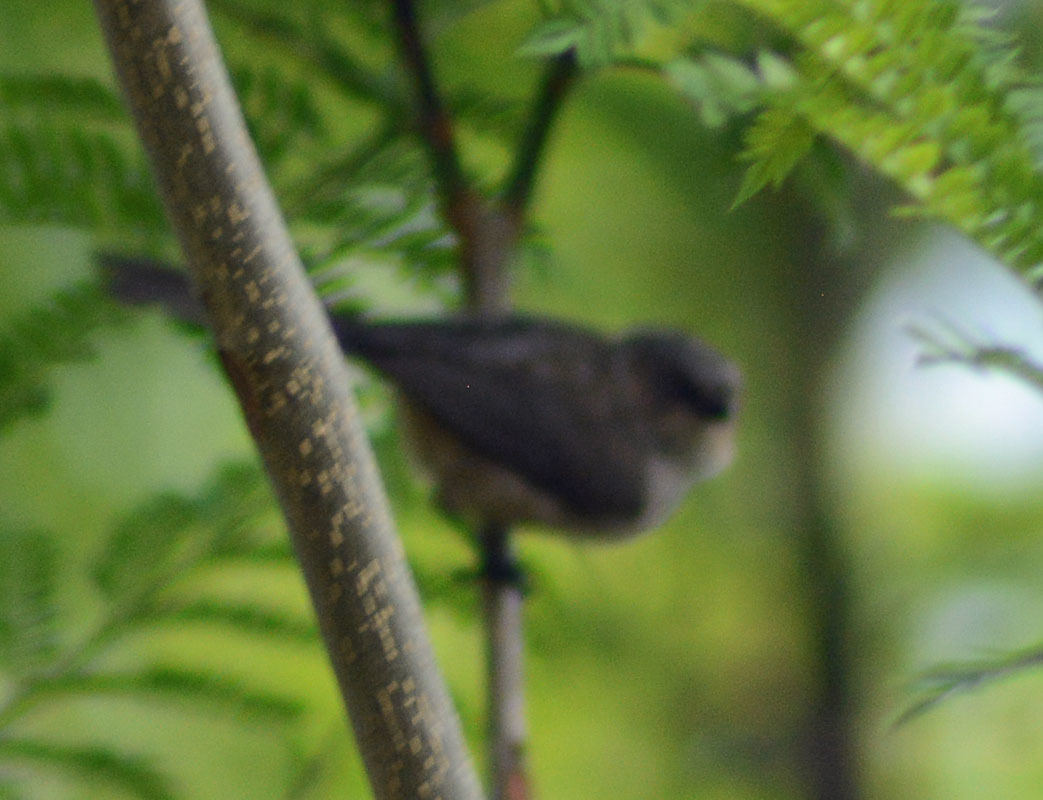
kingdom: Animalia
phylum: Chordata
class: Aves
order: Passeriformes
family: Aegithalidae
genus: Psaltriparus
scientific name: Psaltriparus minimus
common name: American bushtit
